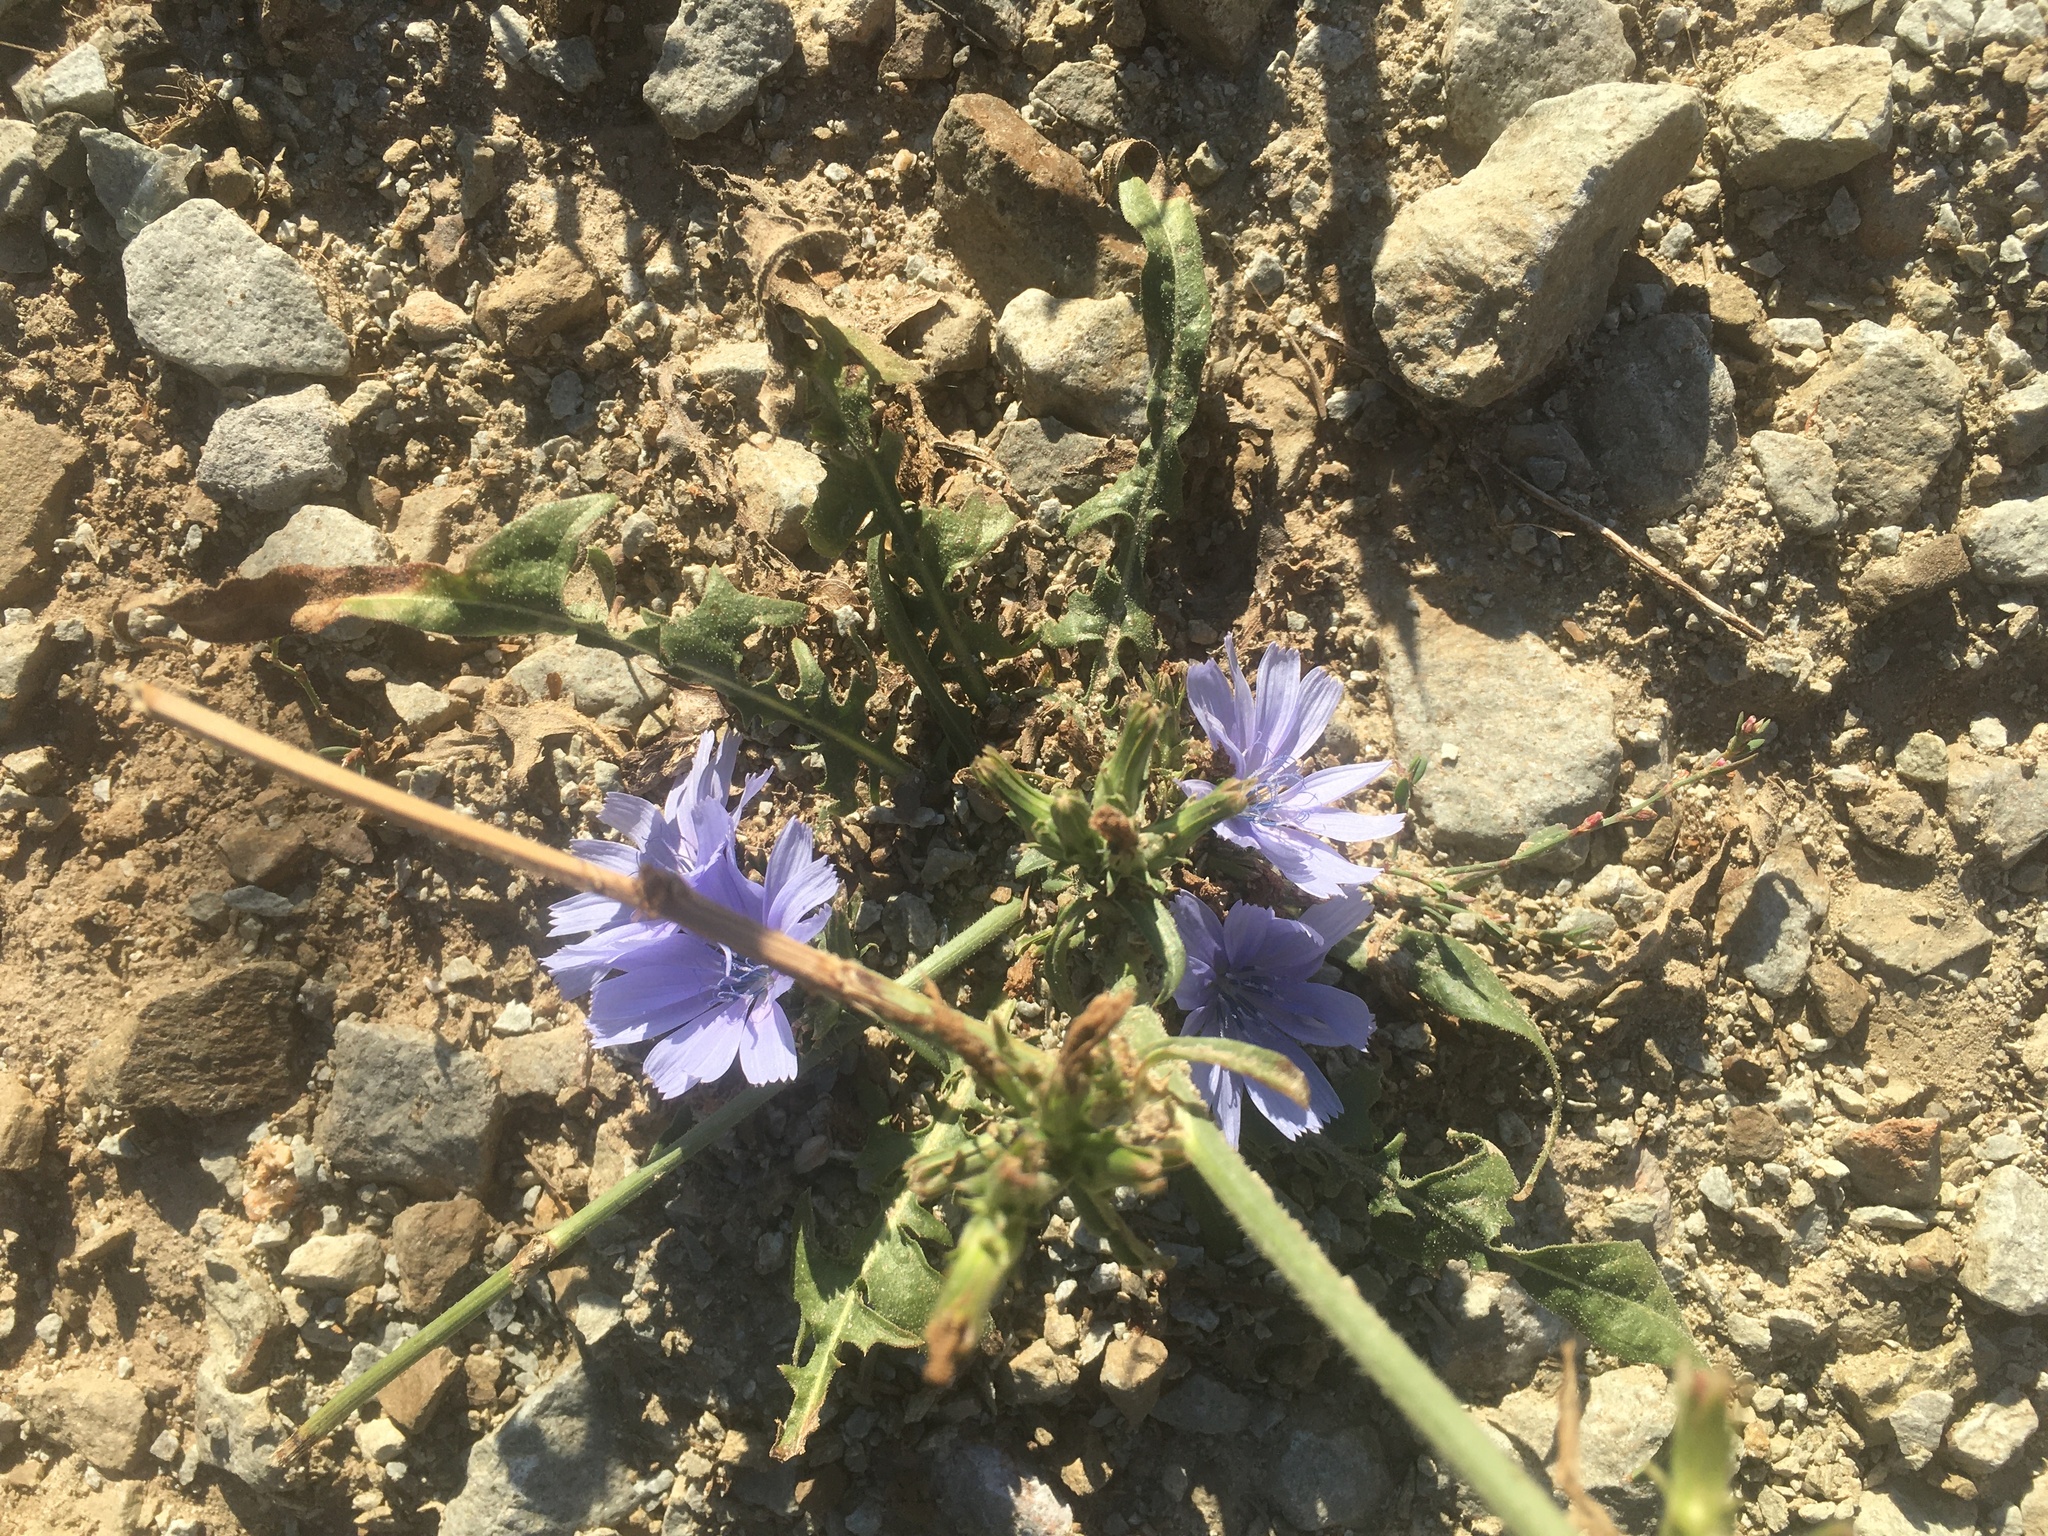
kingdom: Plantae
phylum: Tracheophyta
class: Magnoliopsida
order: Asterales
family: Asteraceae
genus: Cichorium
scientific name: Cichorium intybus
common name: Chicory
